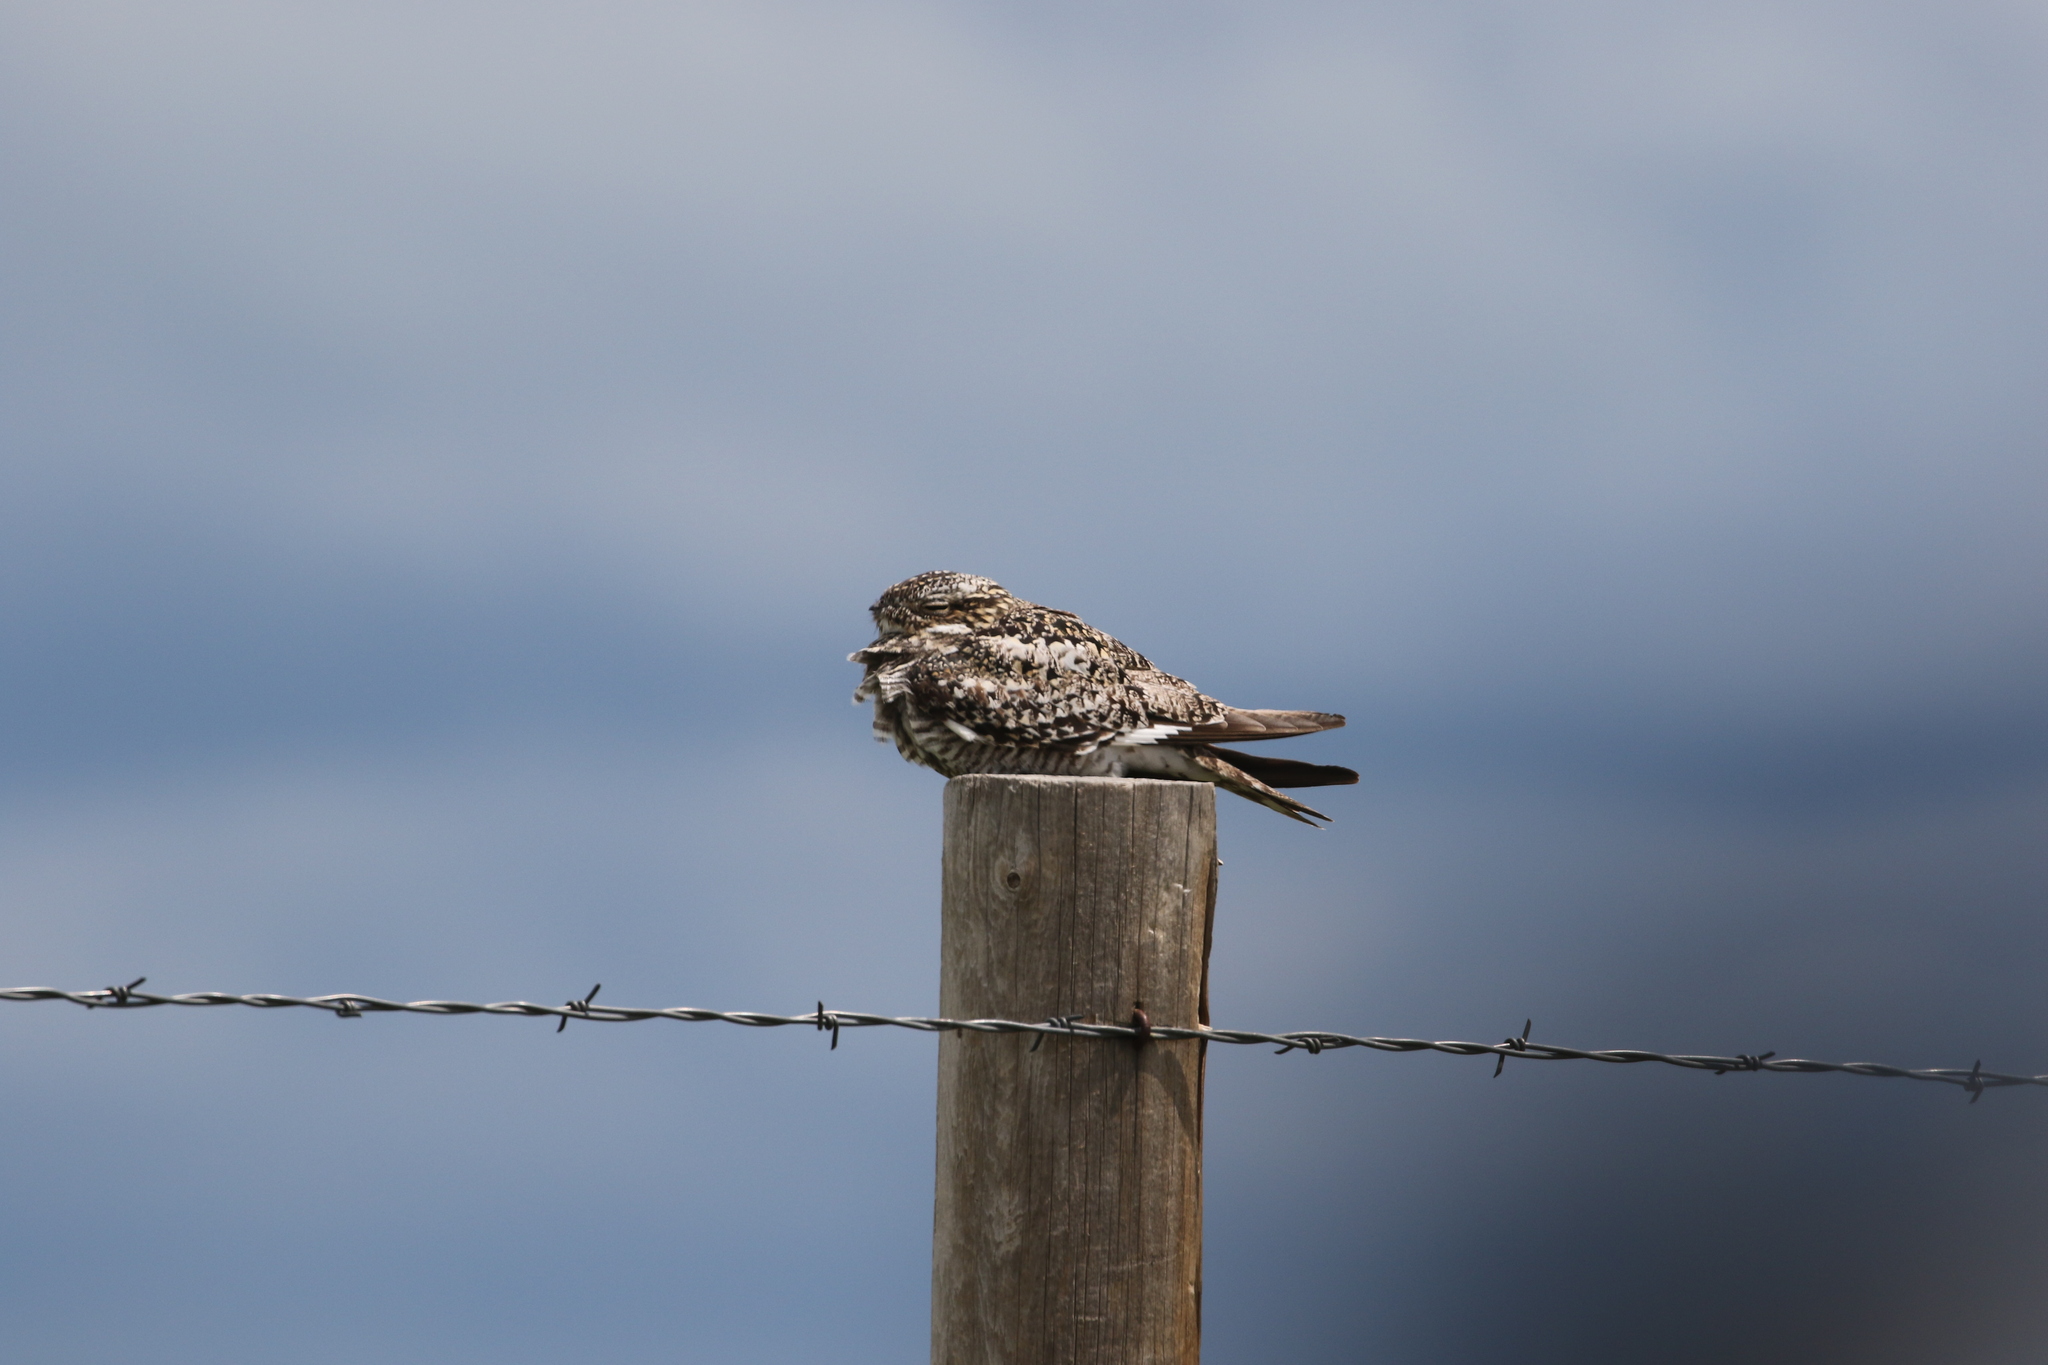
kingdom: Animalia
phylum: Chordata
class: Aves
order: Caprimulgiformes
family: Caprimulgidae
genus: Chordeiles
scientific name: Chordeiles minor
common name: Common nighthawk
